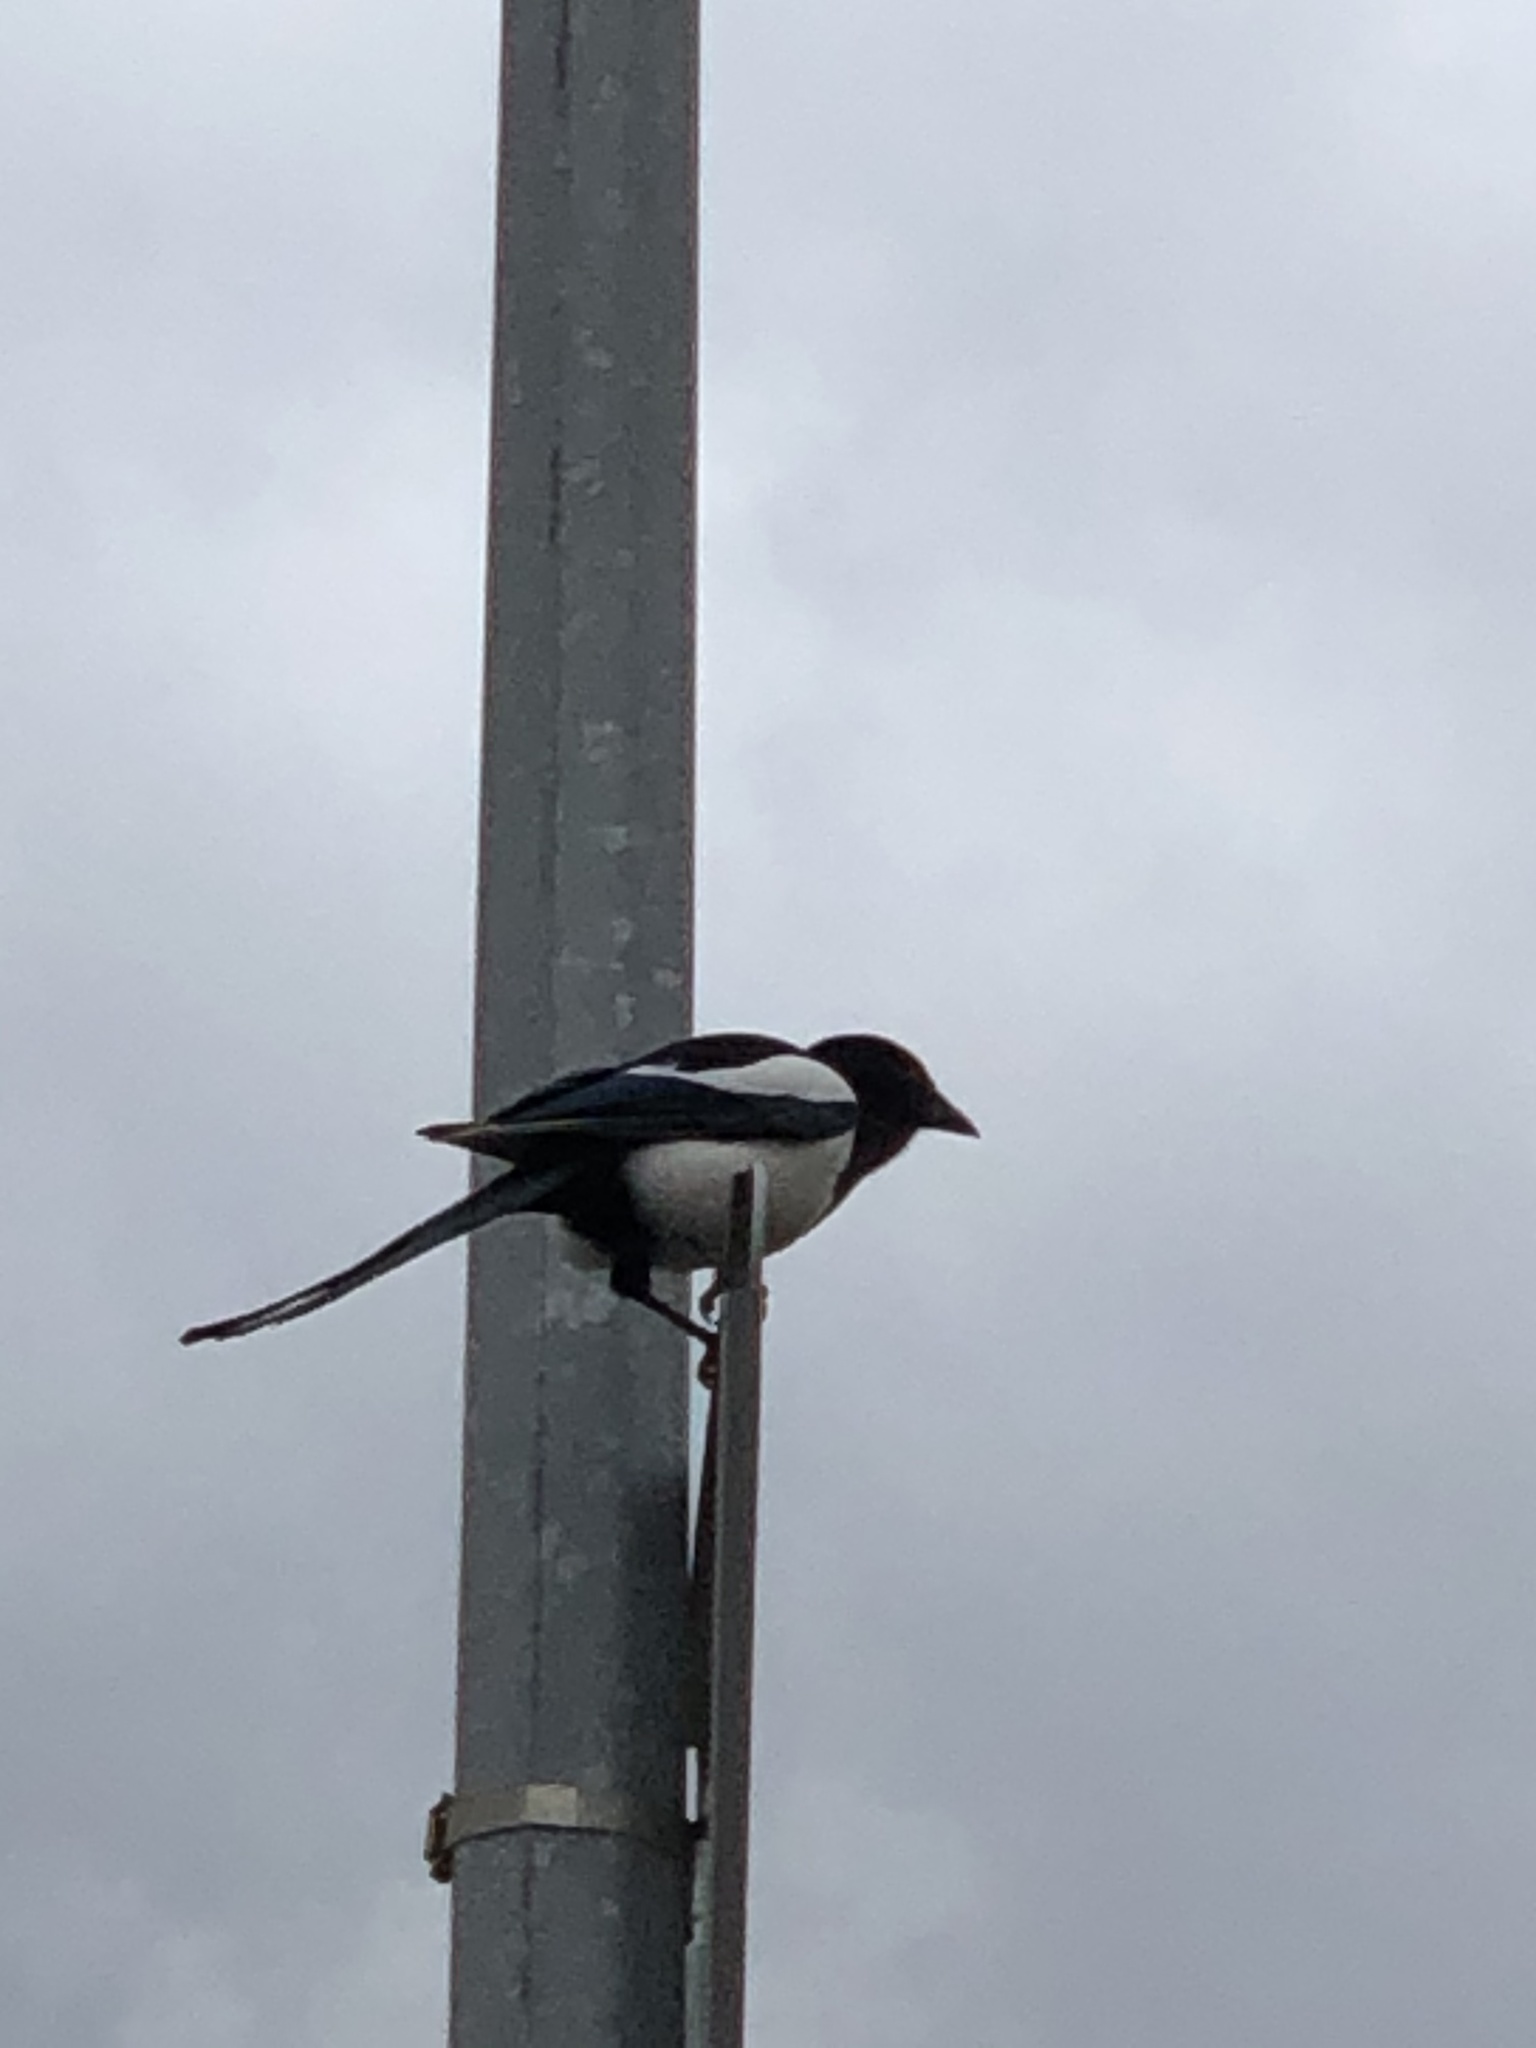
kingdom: Animalia
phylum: Chordata
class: Aves
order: Passeriformes
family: Corvidae
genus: Pica
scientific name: Pica pica
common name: Eurasian magpie
